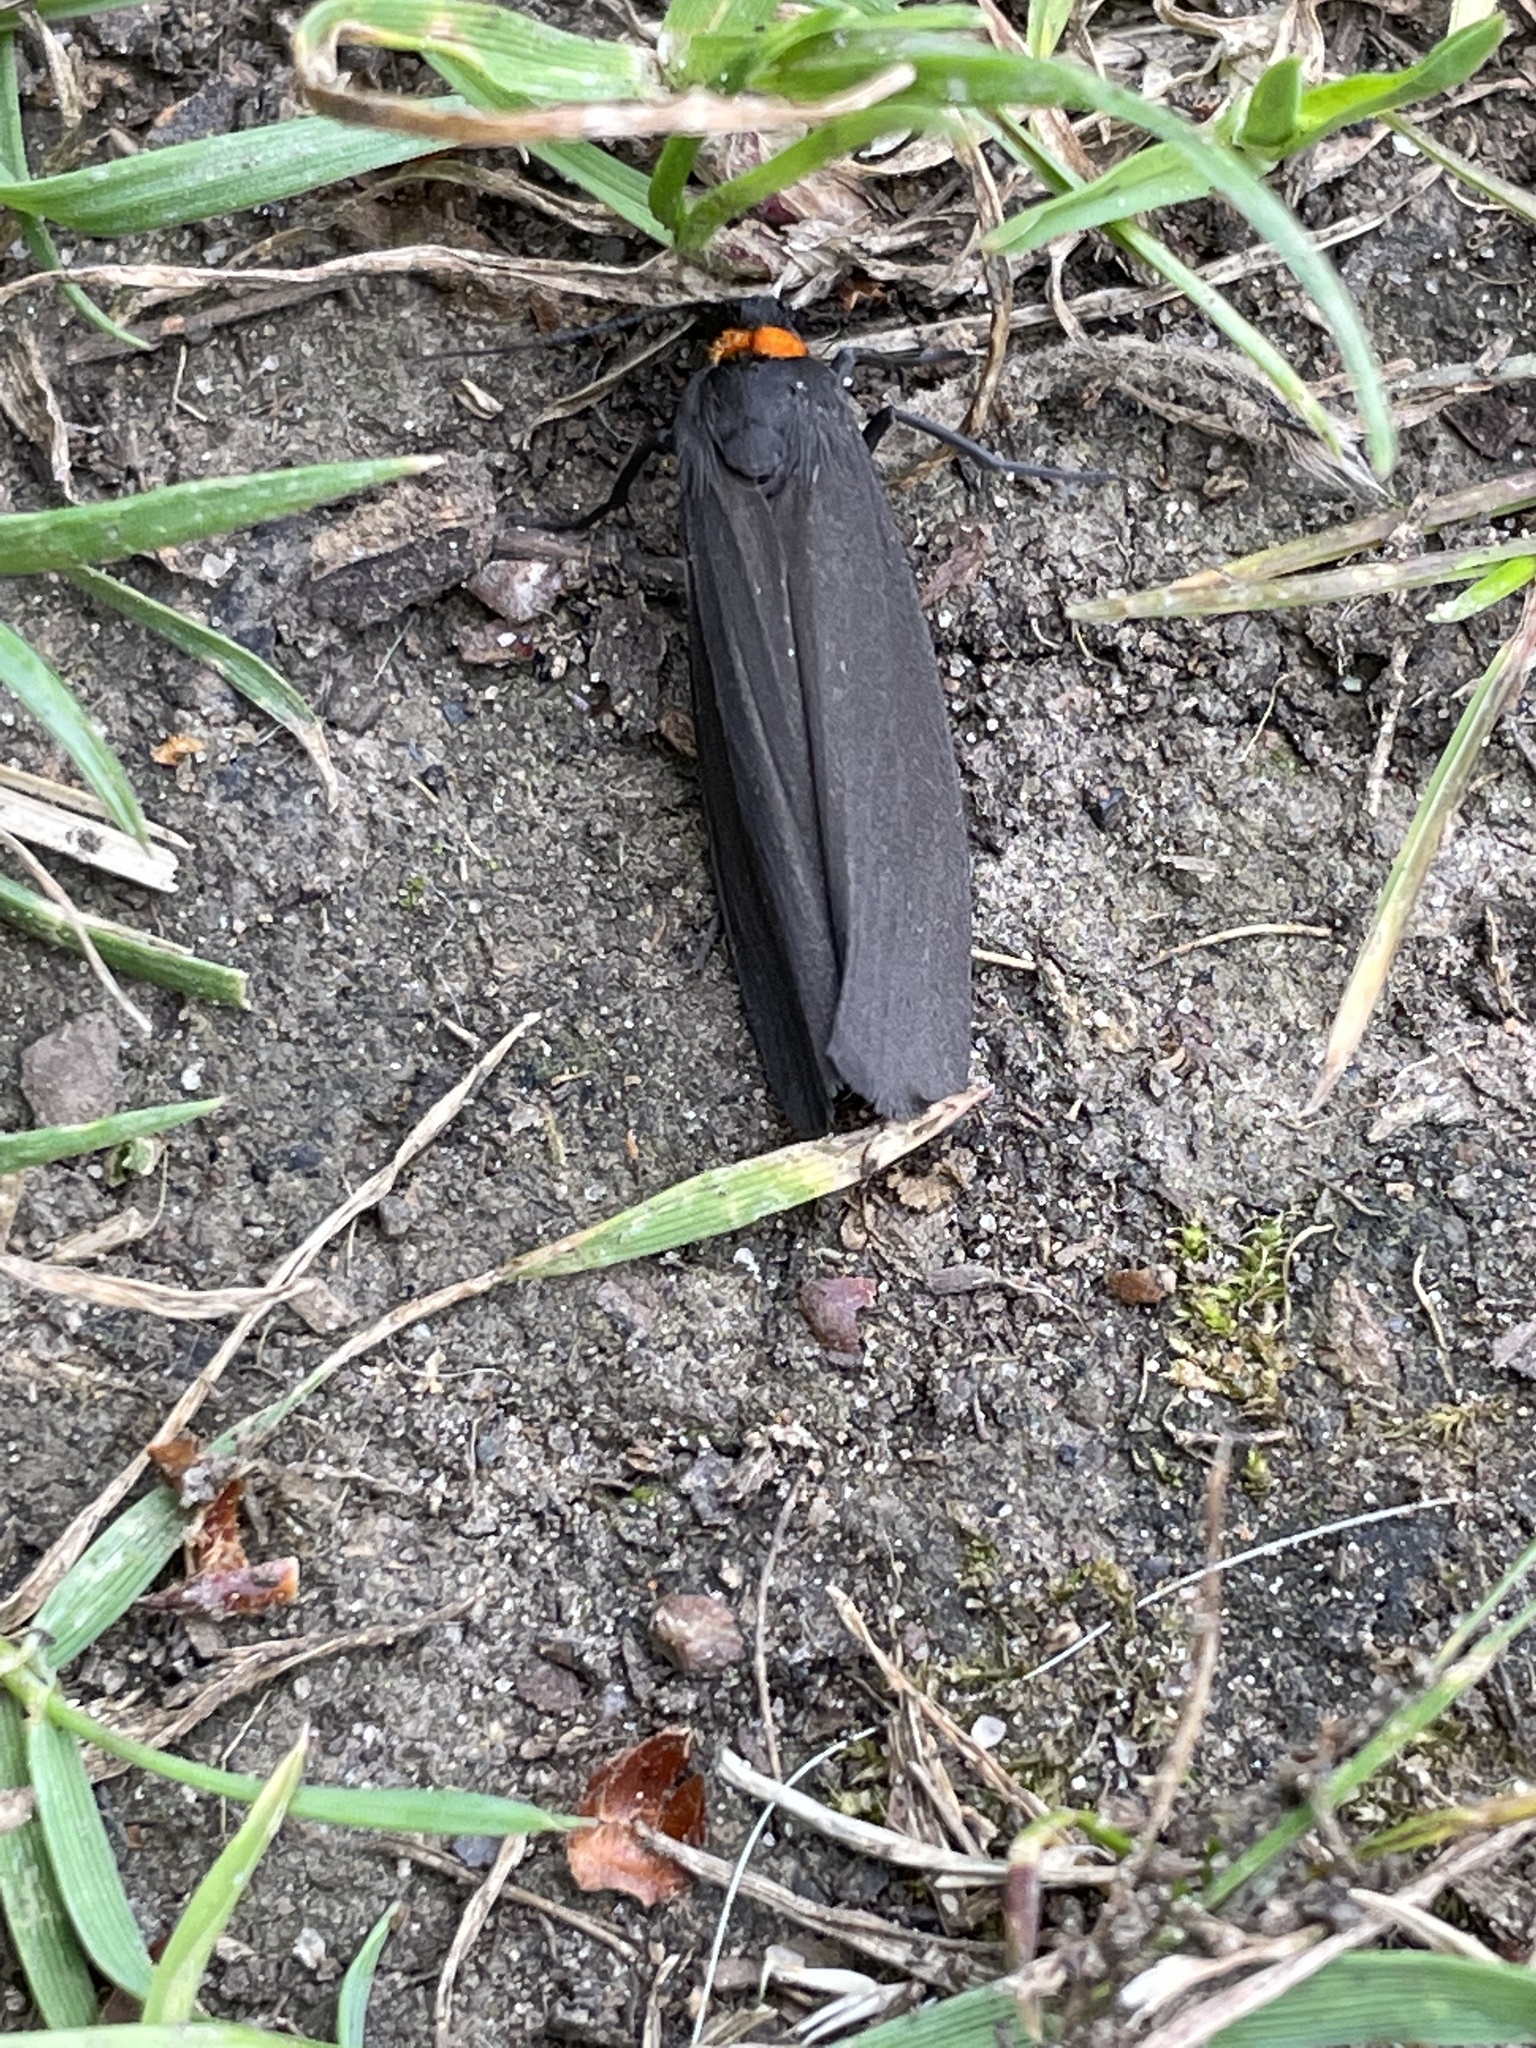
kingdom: Animalia
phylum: Arthropoda
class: Insecta
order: Lepidoptera
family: Erebidae
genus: Atolmis
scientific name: Atolmis rubricollis
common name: Red-necked footman
